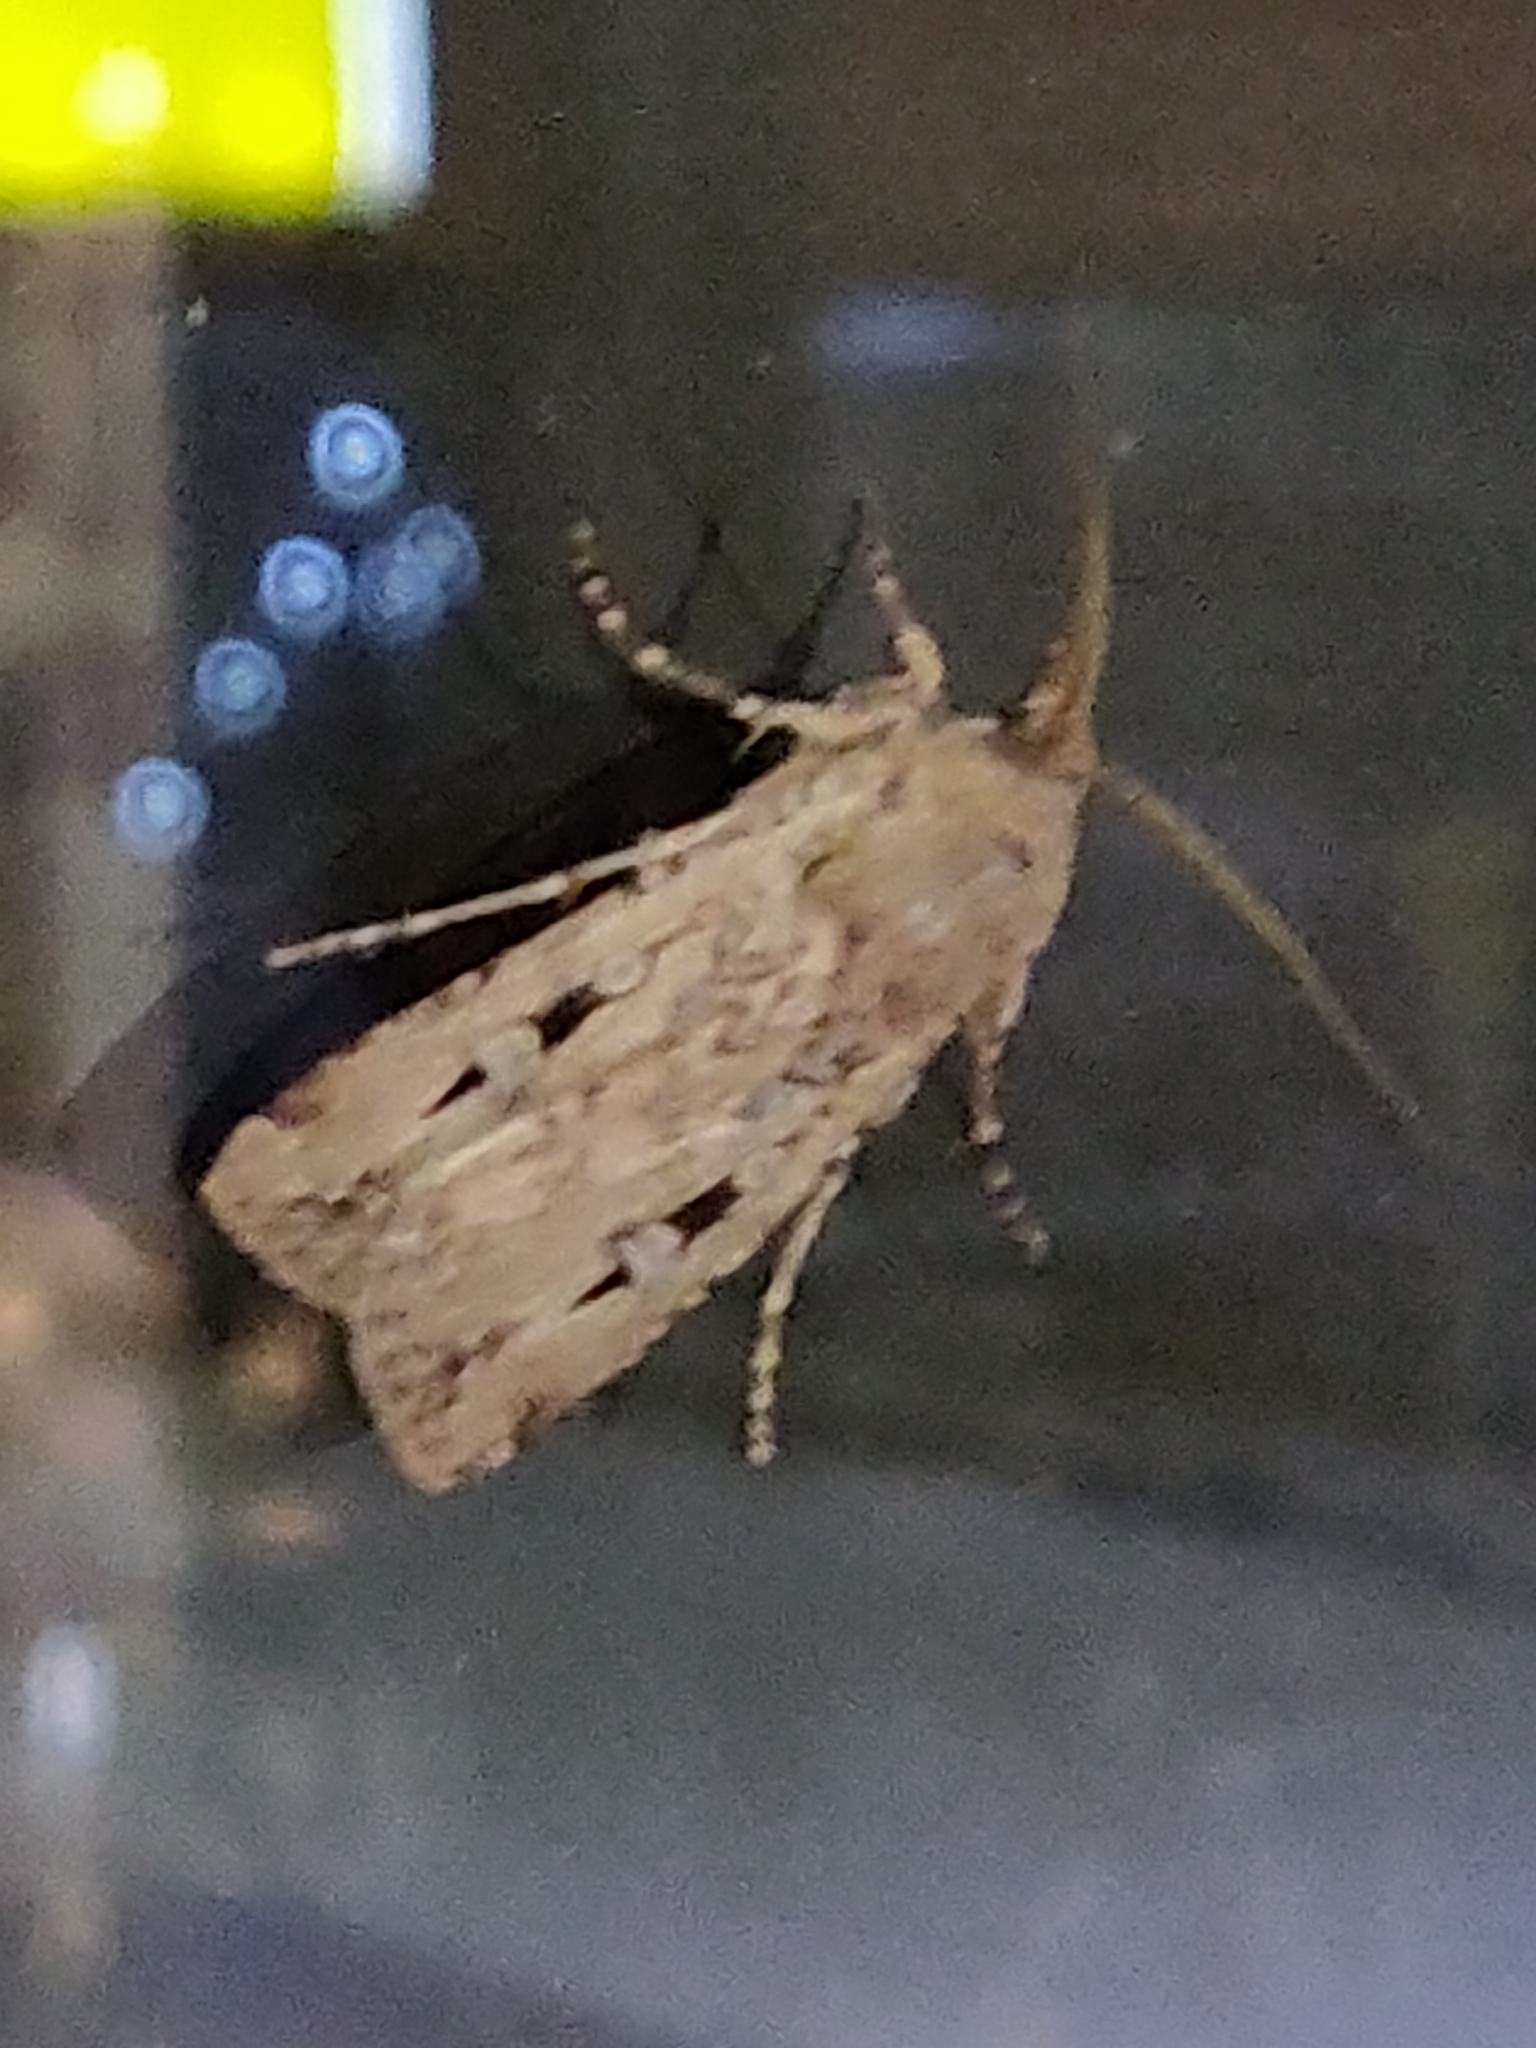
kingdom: Animalia
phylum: Arthropoda
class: Insecta
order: Lepidoptera
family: Noctuidae
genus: Agrotis
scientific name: Agrotis infusa
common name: Bogong moth
